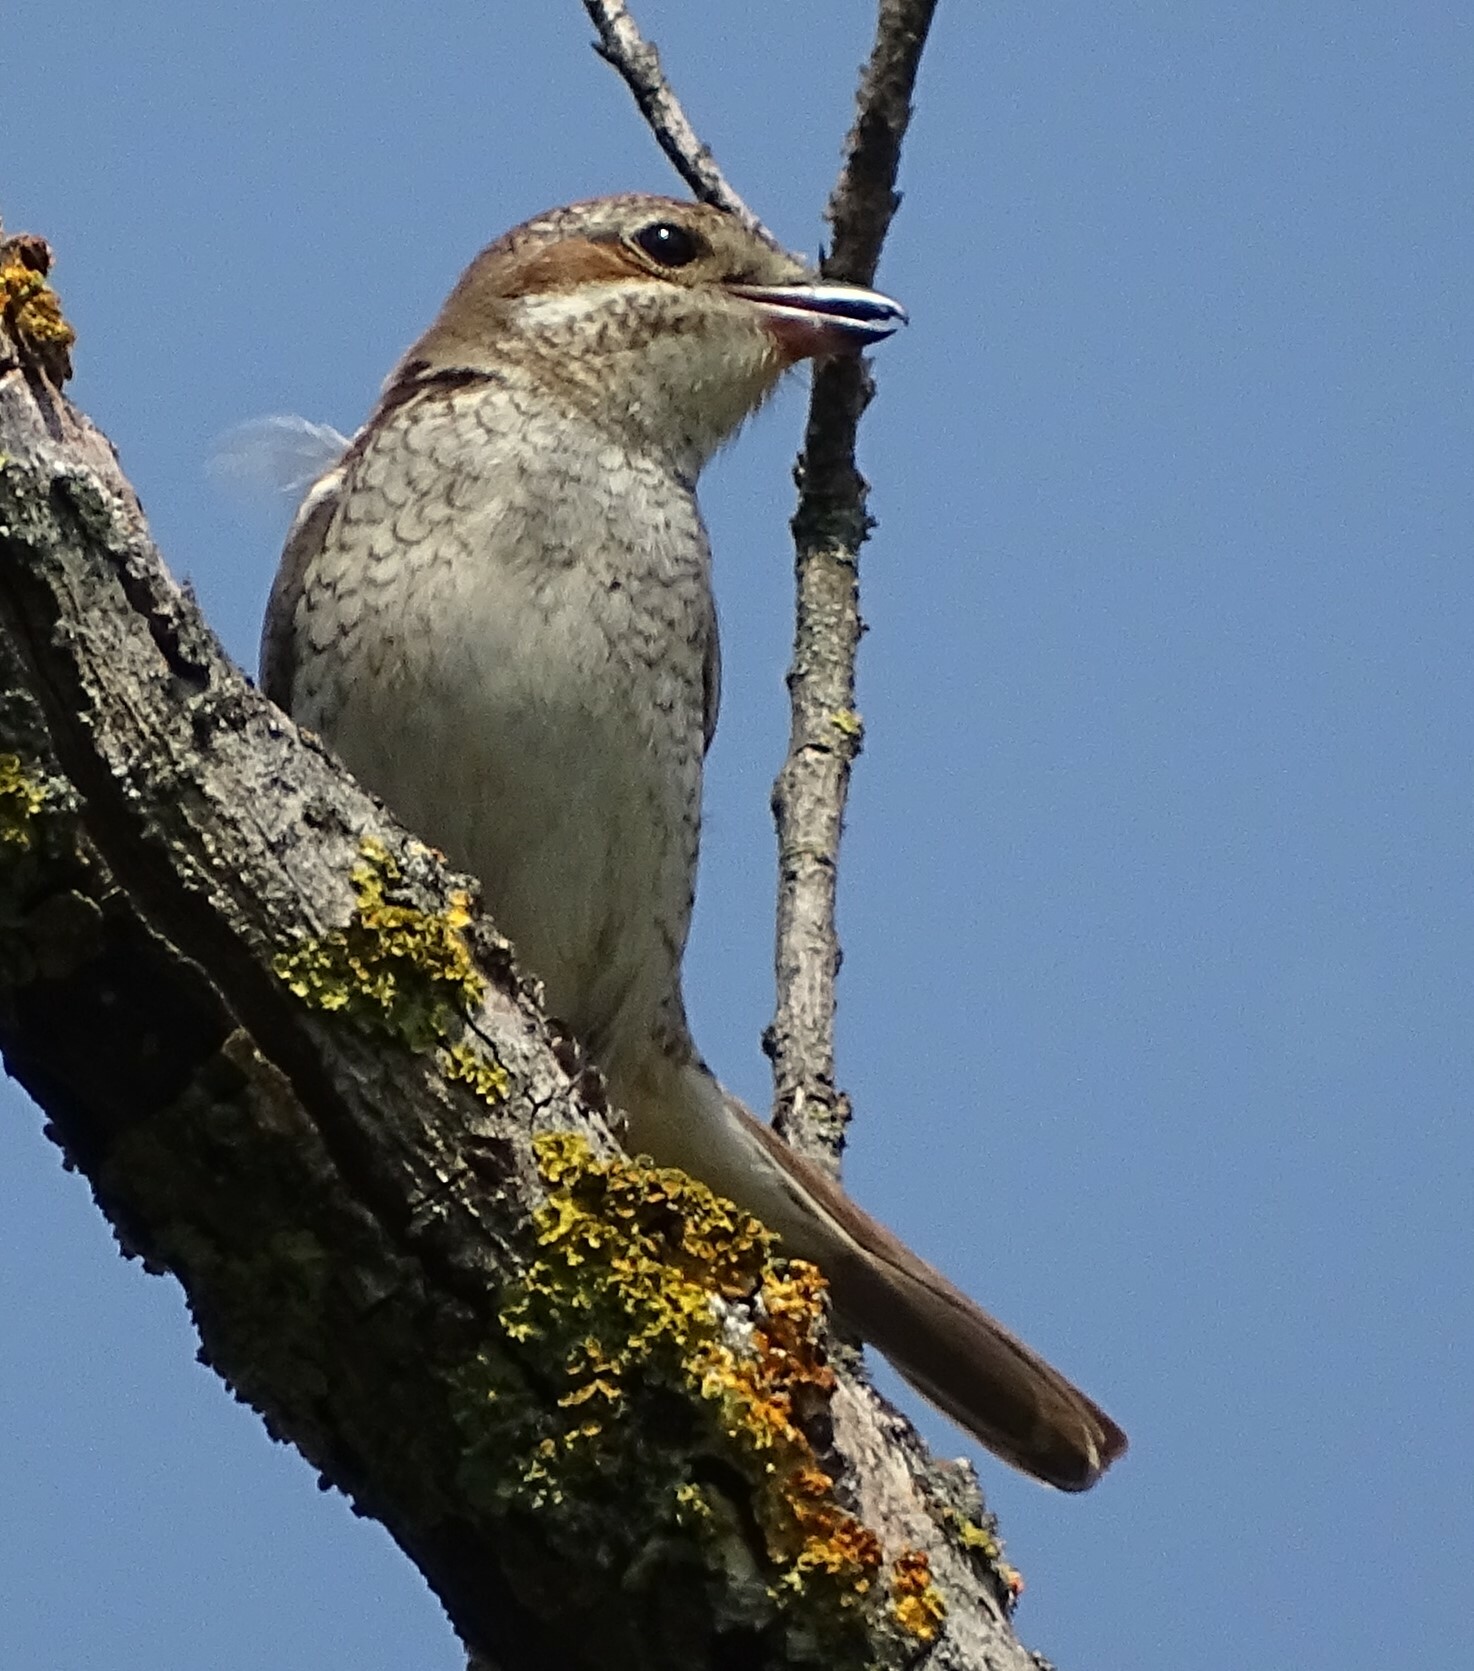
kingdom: Animalia
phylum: Chordata
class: Aves
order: Passeriformes
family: Laniidae
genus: Lanius
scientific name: Lanius collurio
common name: Red-backed shrike
